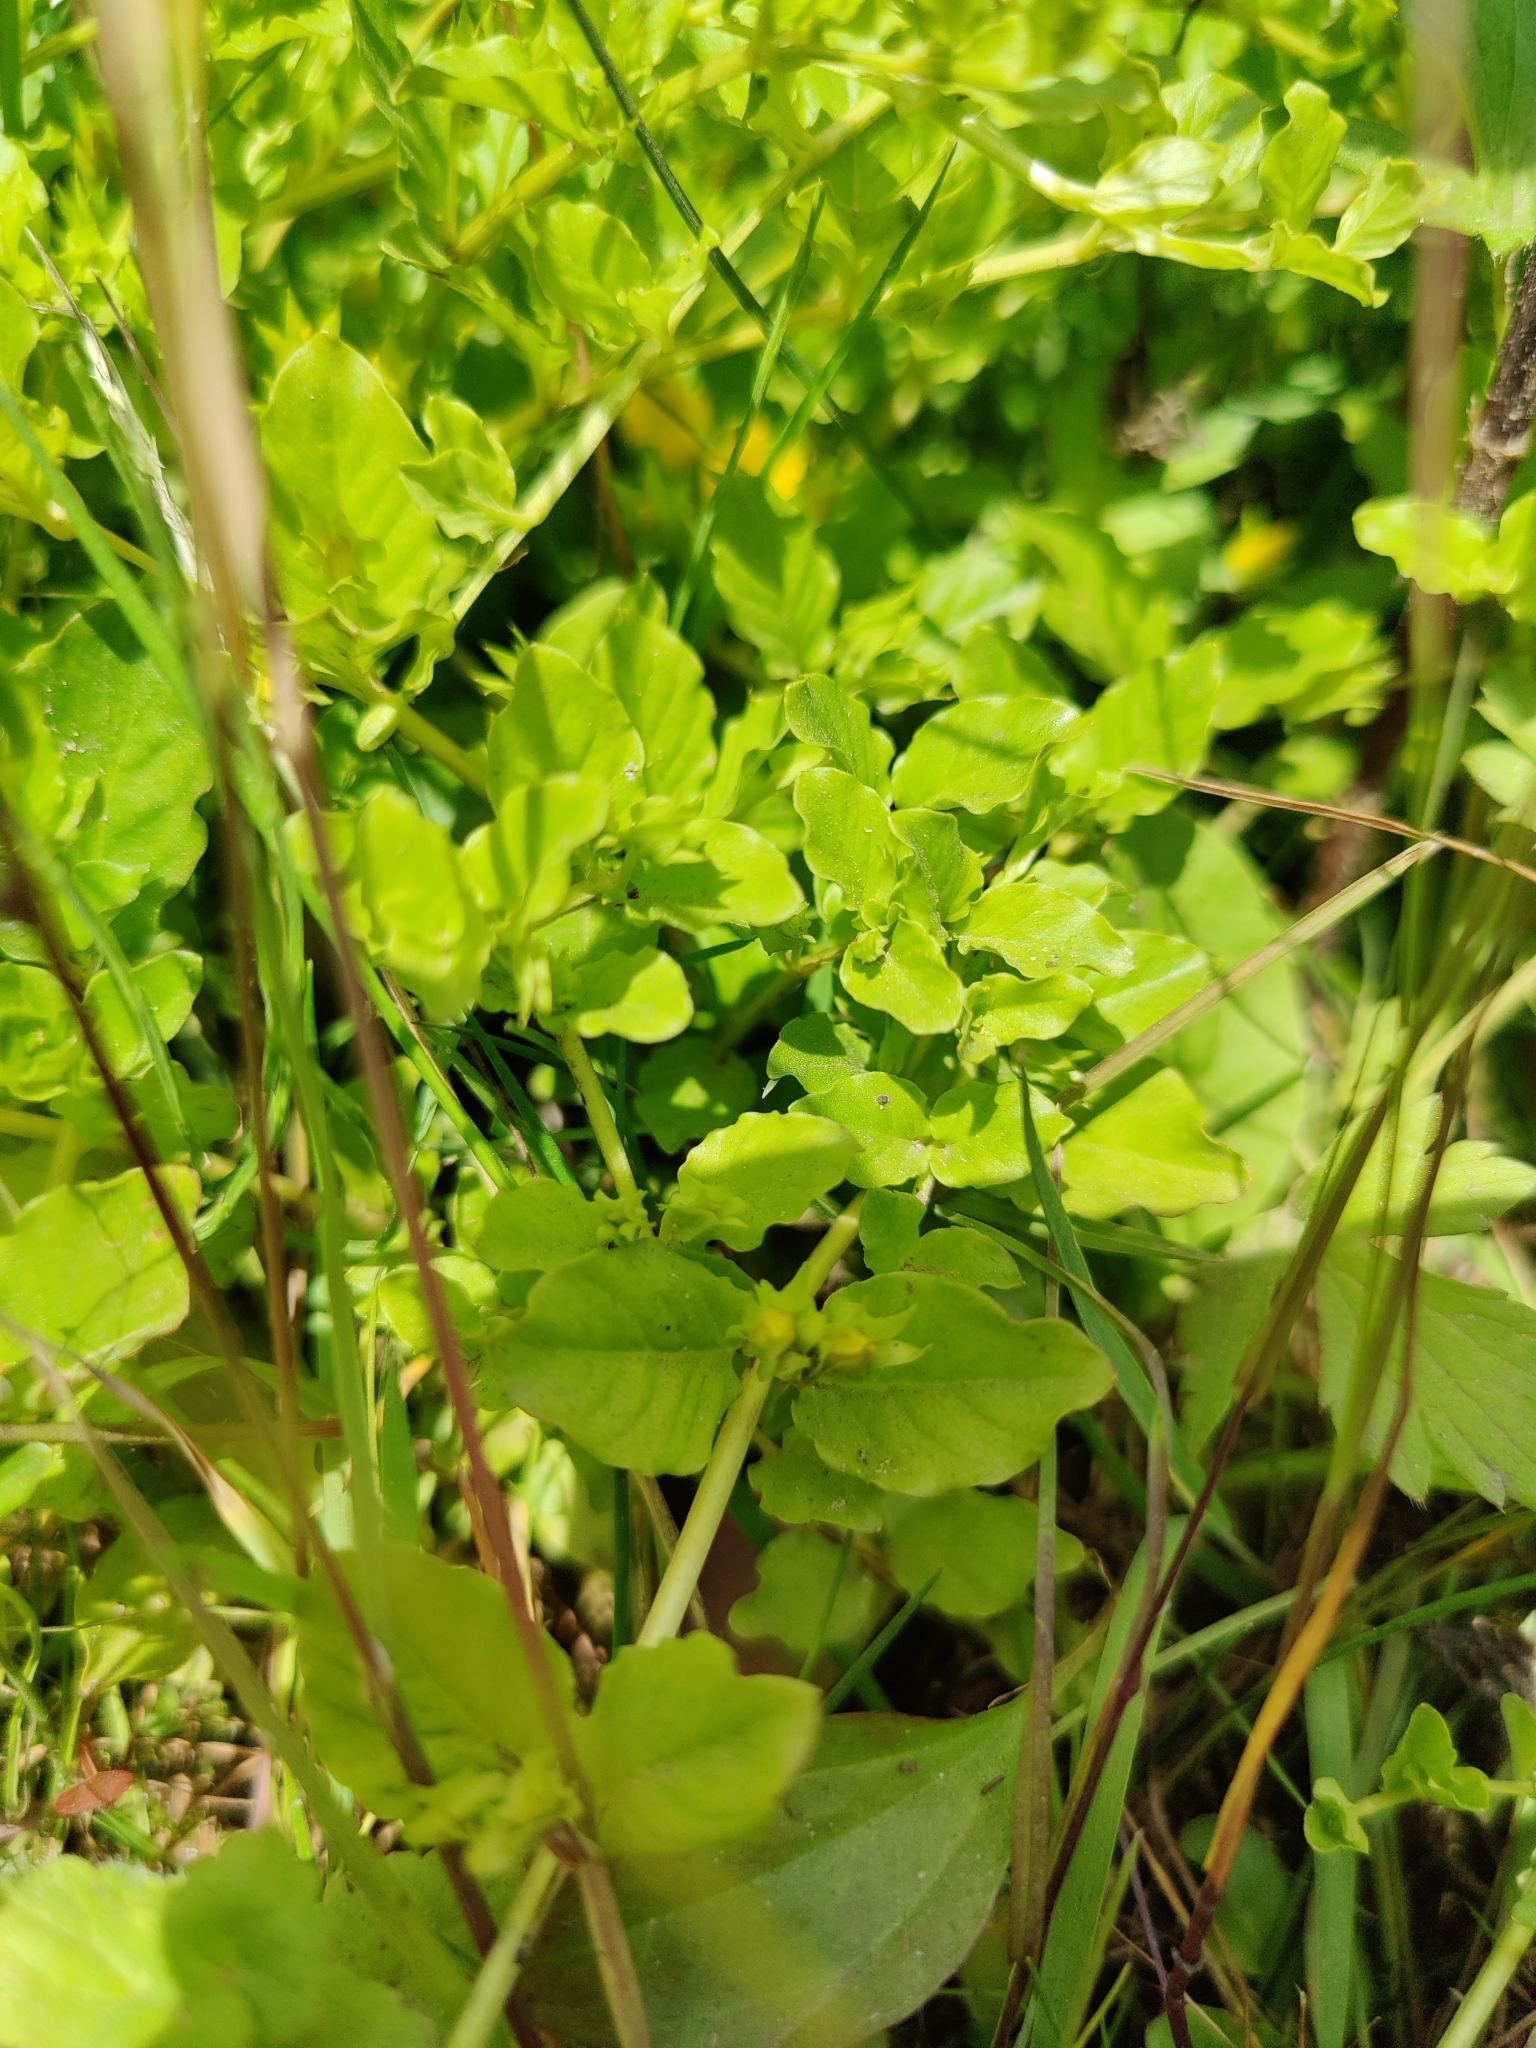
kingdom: Plantae
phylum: Tracheophyta
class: Magnoliopsida
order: Ericales
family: Primulaceae
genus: Lysimachia
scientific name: Lysimachia nummularia
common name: Moneywort
